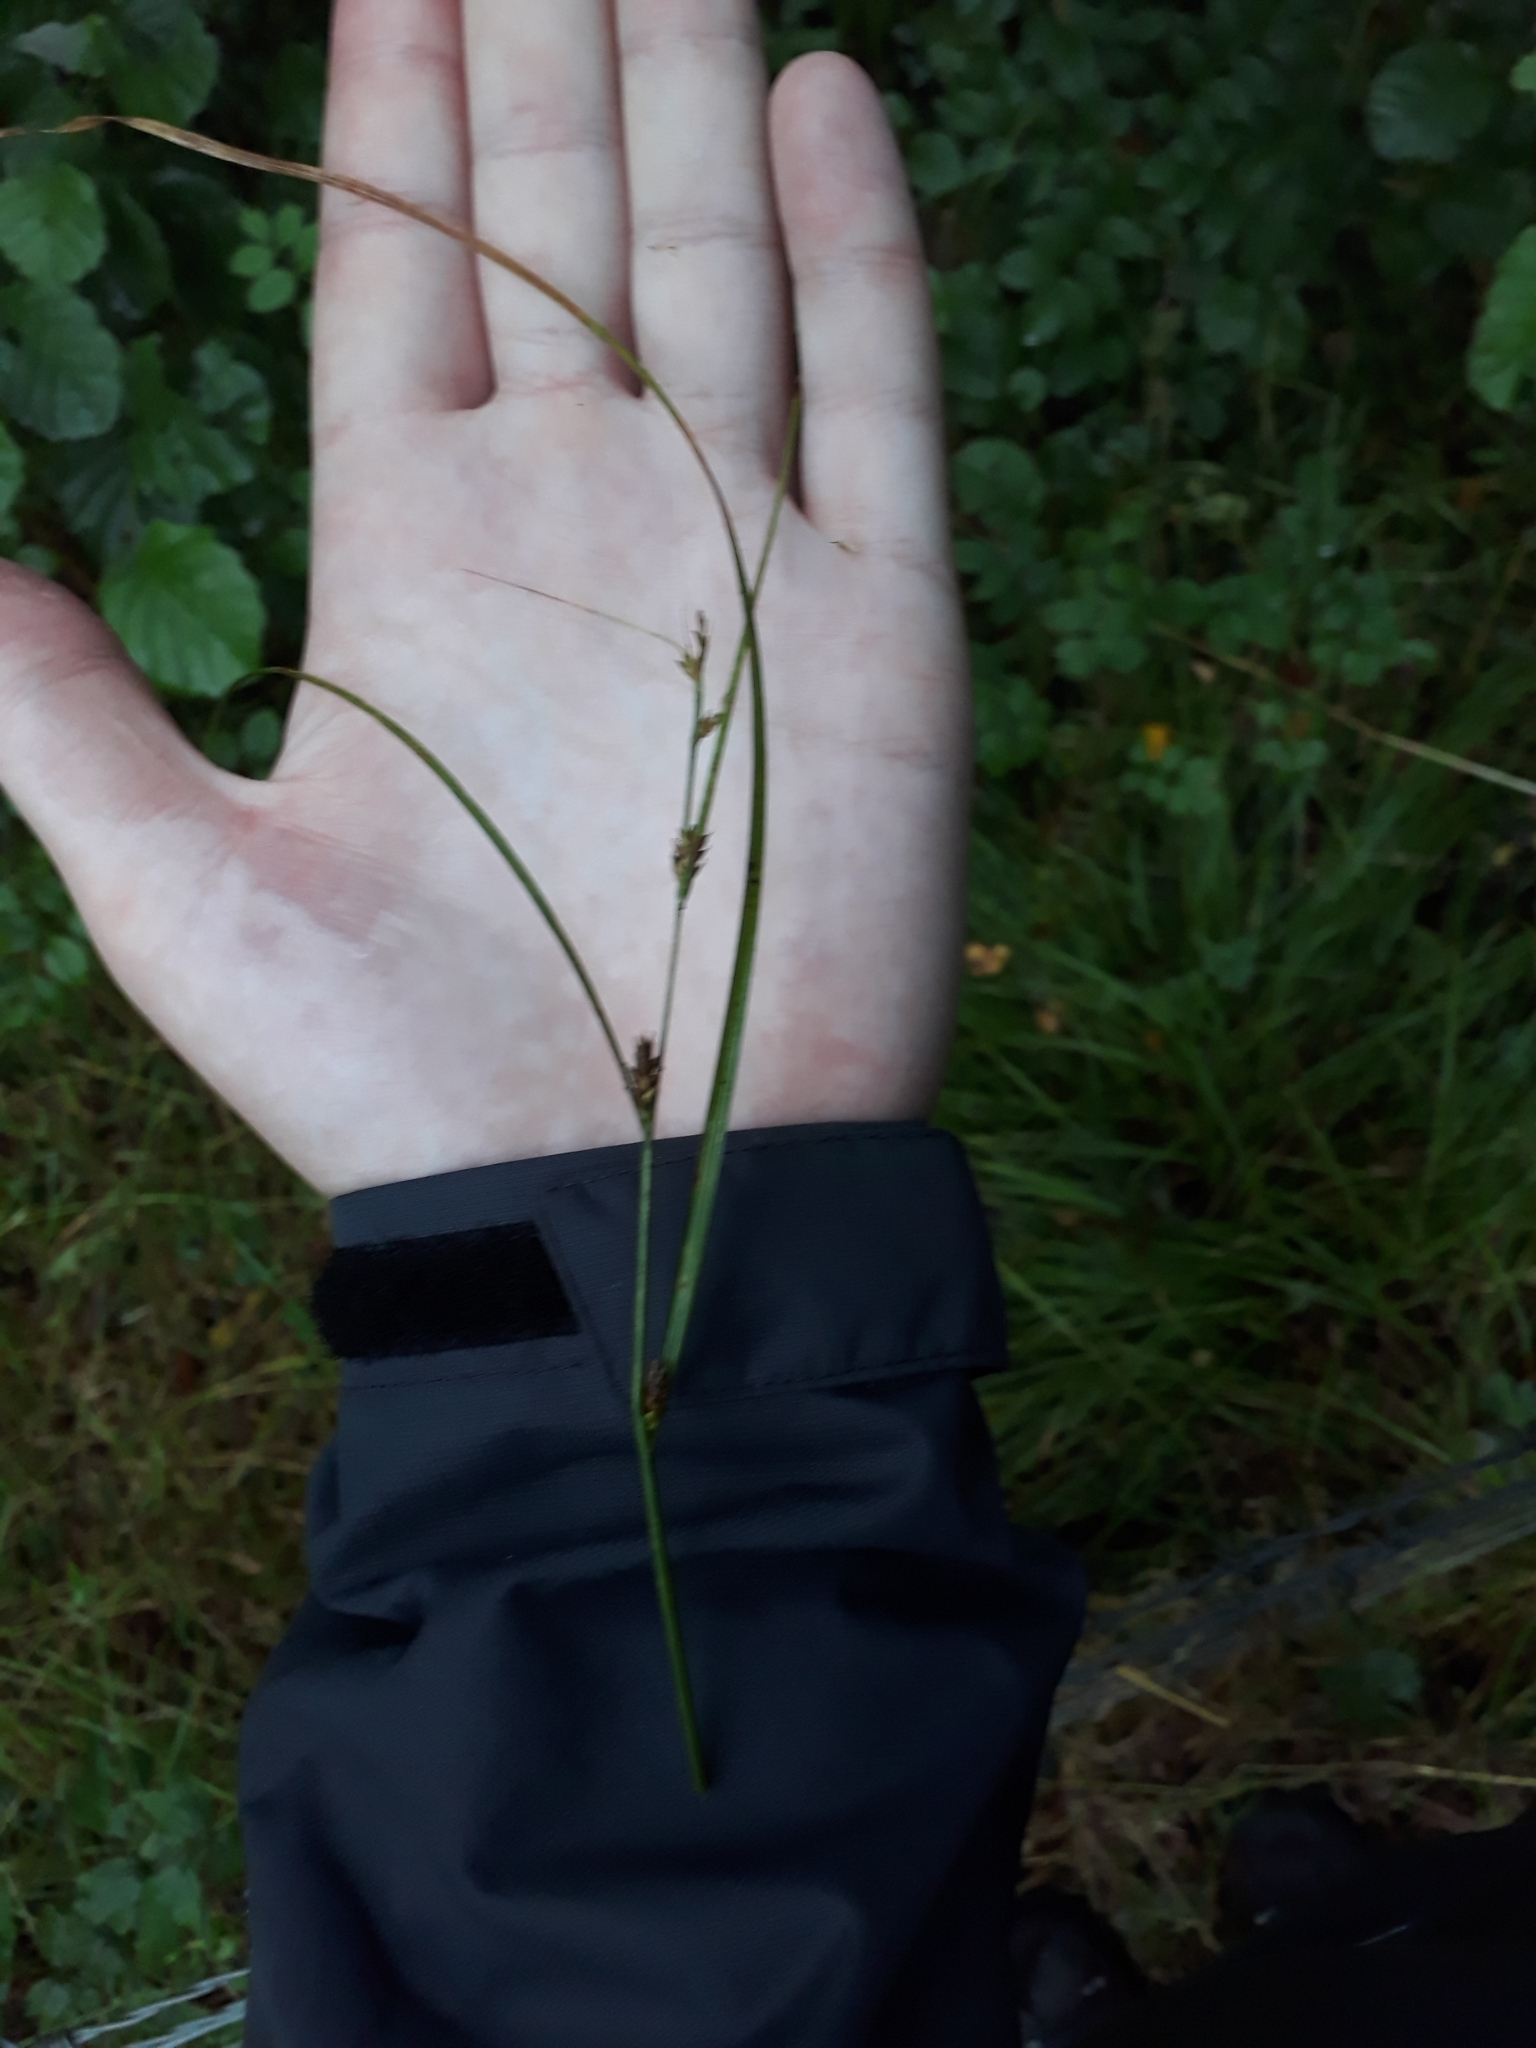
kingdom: Plantae
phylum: Tracheophyta
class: Liliopsida
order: Poales
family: Cyperaceae
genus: Carex
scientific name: Carex remota
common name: Remote sedge
